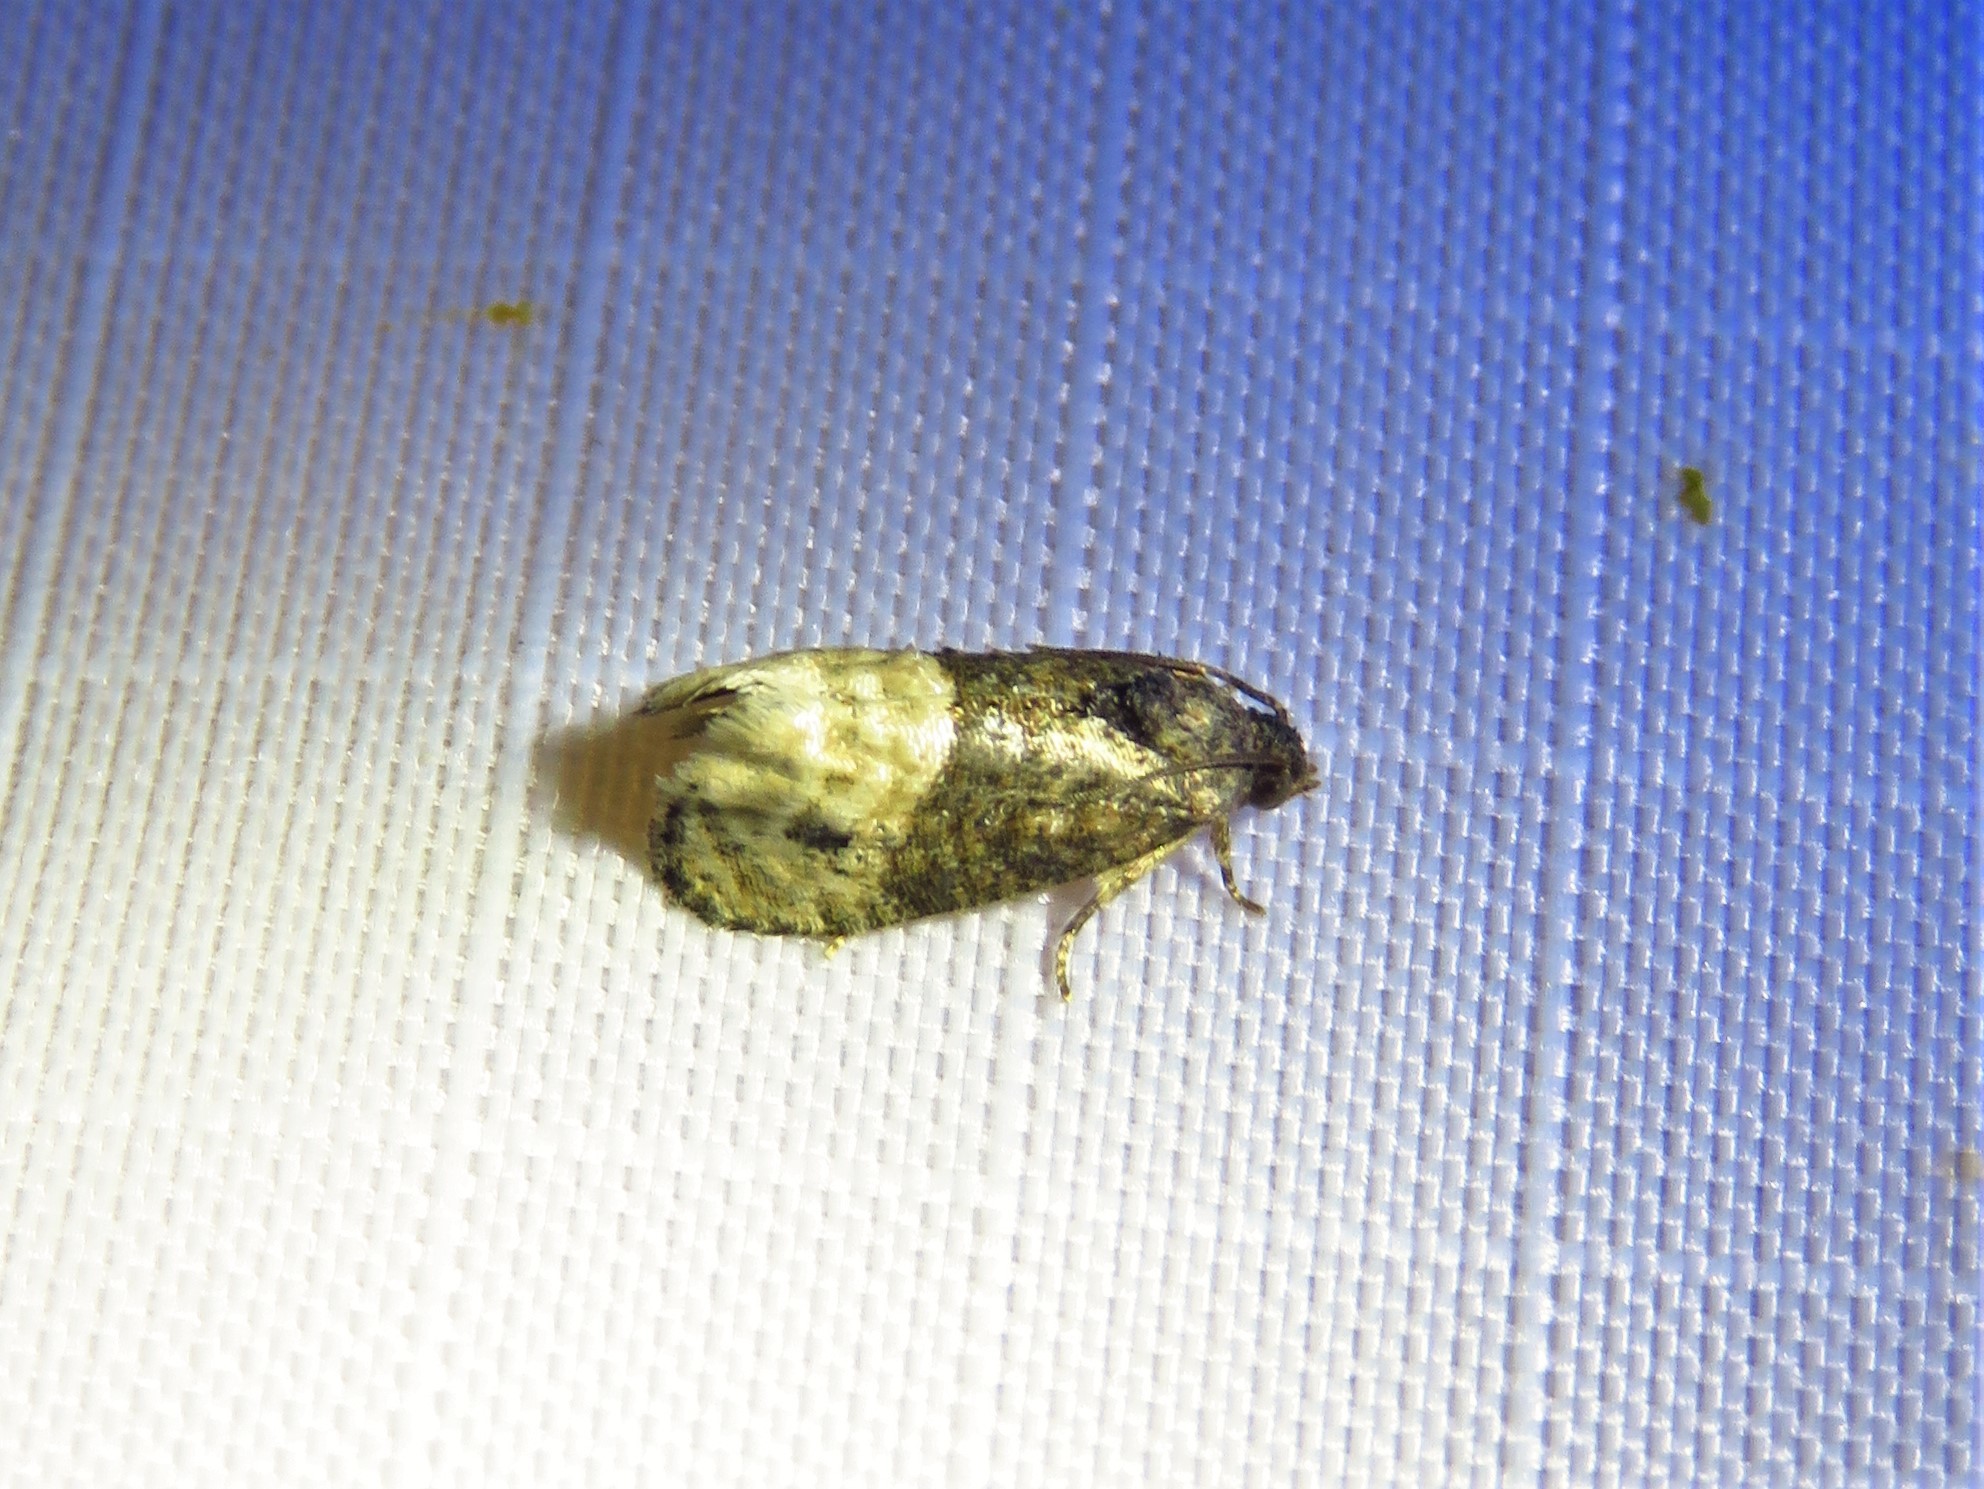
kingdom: Animalia
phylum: Arthropoda
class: Insecta
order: Lepidoptera
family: Tortricidae
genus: Ecdytolopha
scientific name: Ecdytolopha mana
